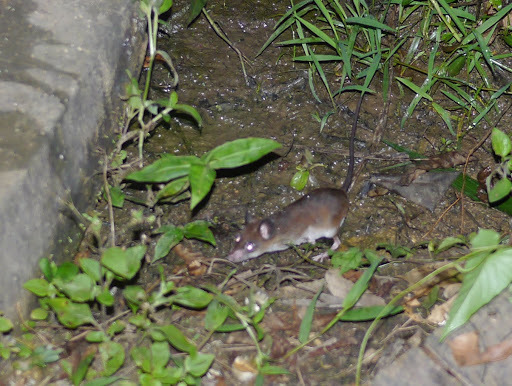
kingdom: Animalia
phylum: Chordata
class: Mammalia
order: Rodentia
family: Muridae
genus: Malacomys
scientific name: Malacomys longipes
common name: Common malacomys
